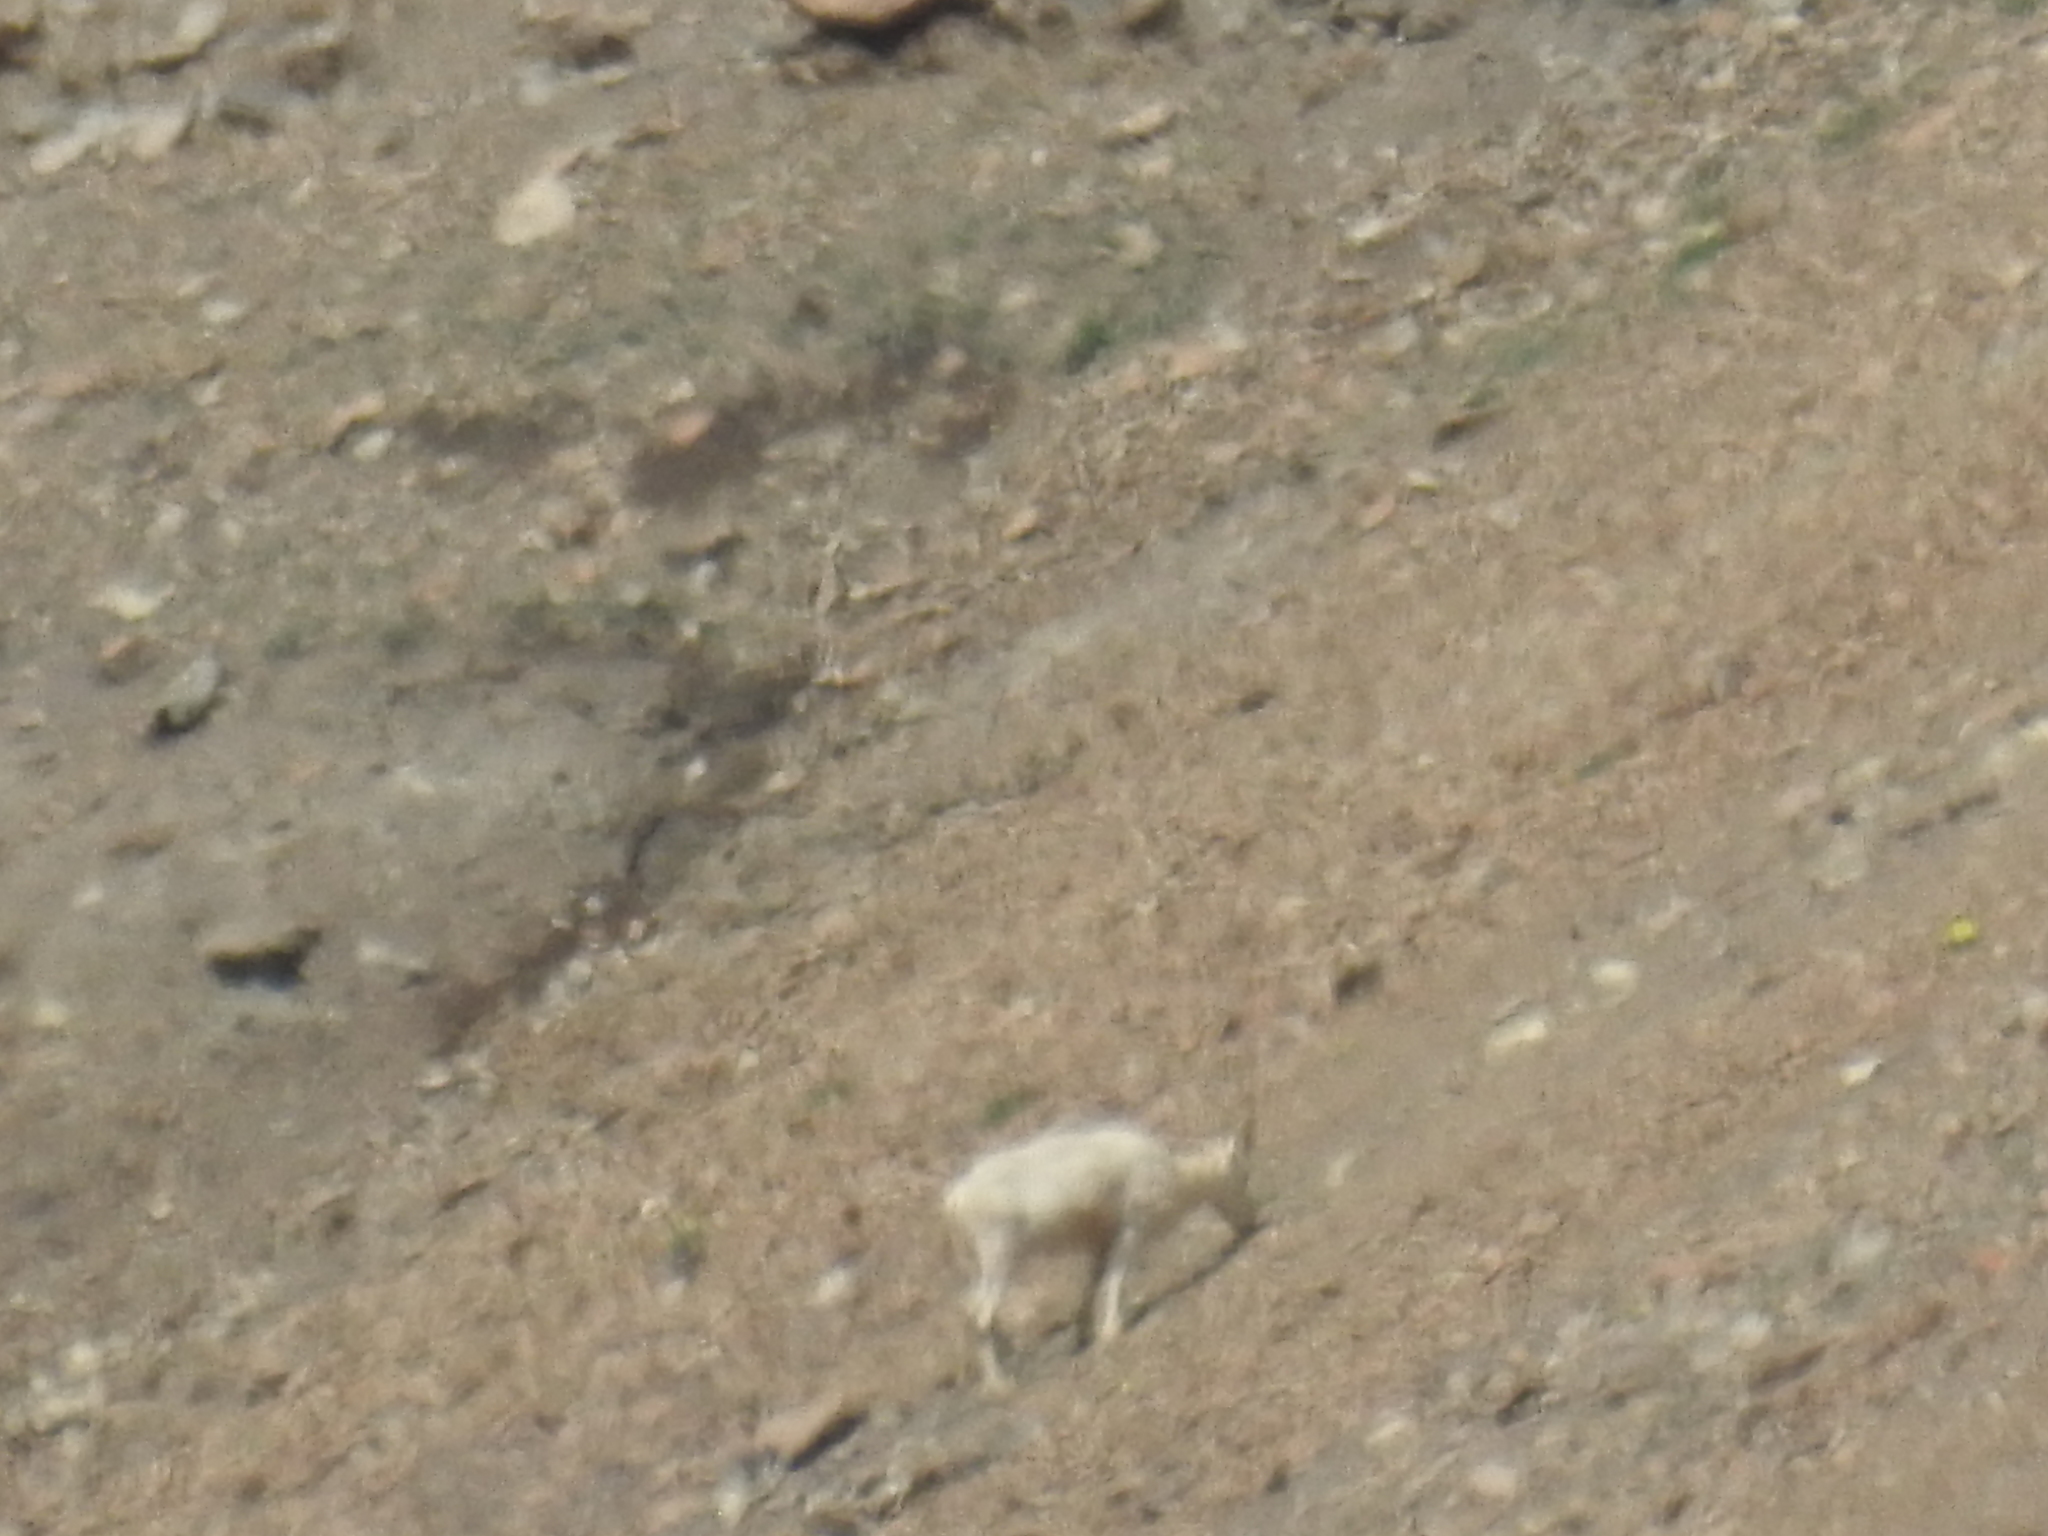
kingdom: Animalia
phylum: Chordata
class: Mammalia
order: Artiodactyla
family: Bovidae
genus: Ovis
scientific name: Ovis dalli
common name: Dall's sheep
